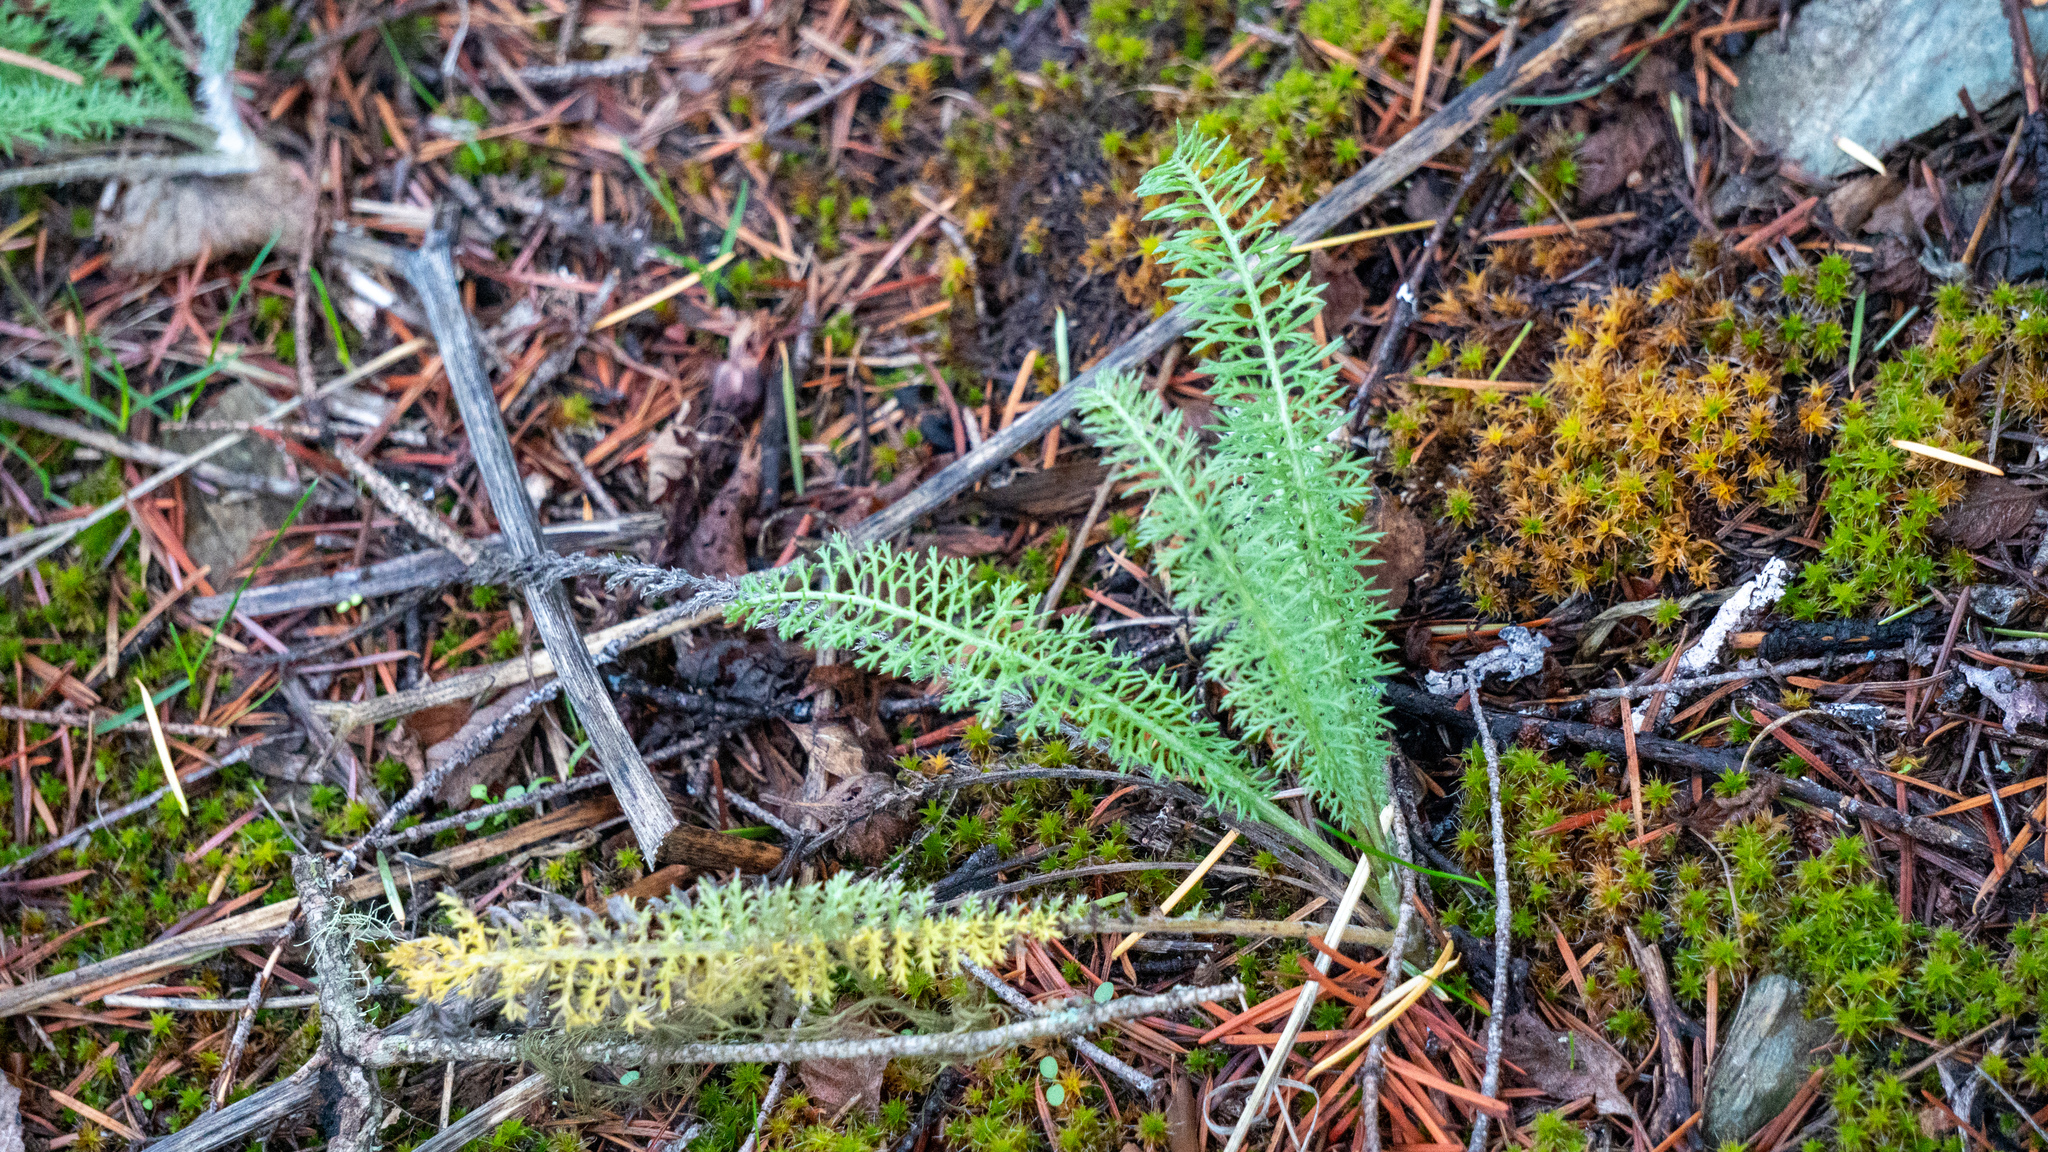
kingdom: Plantae
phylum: Tracheophyta
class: Magnoliopsida
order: Asterales
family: Asteraceae
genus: Achillea
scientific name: Achillea millefolium
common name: Yarrow
